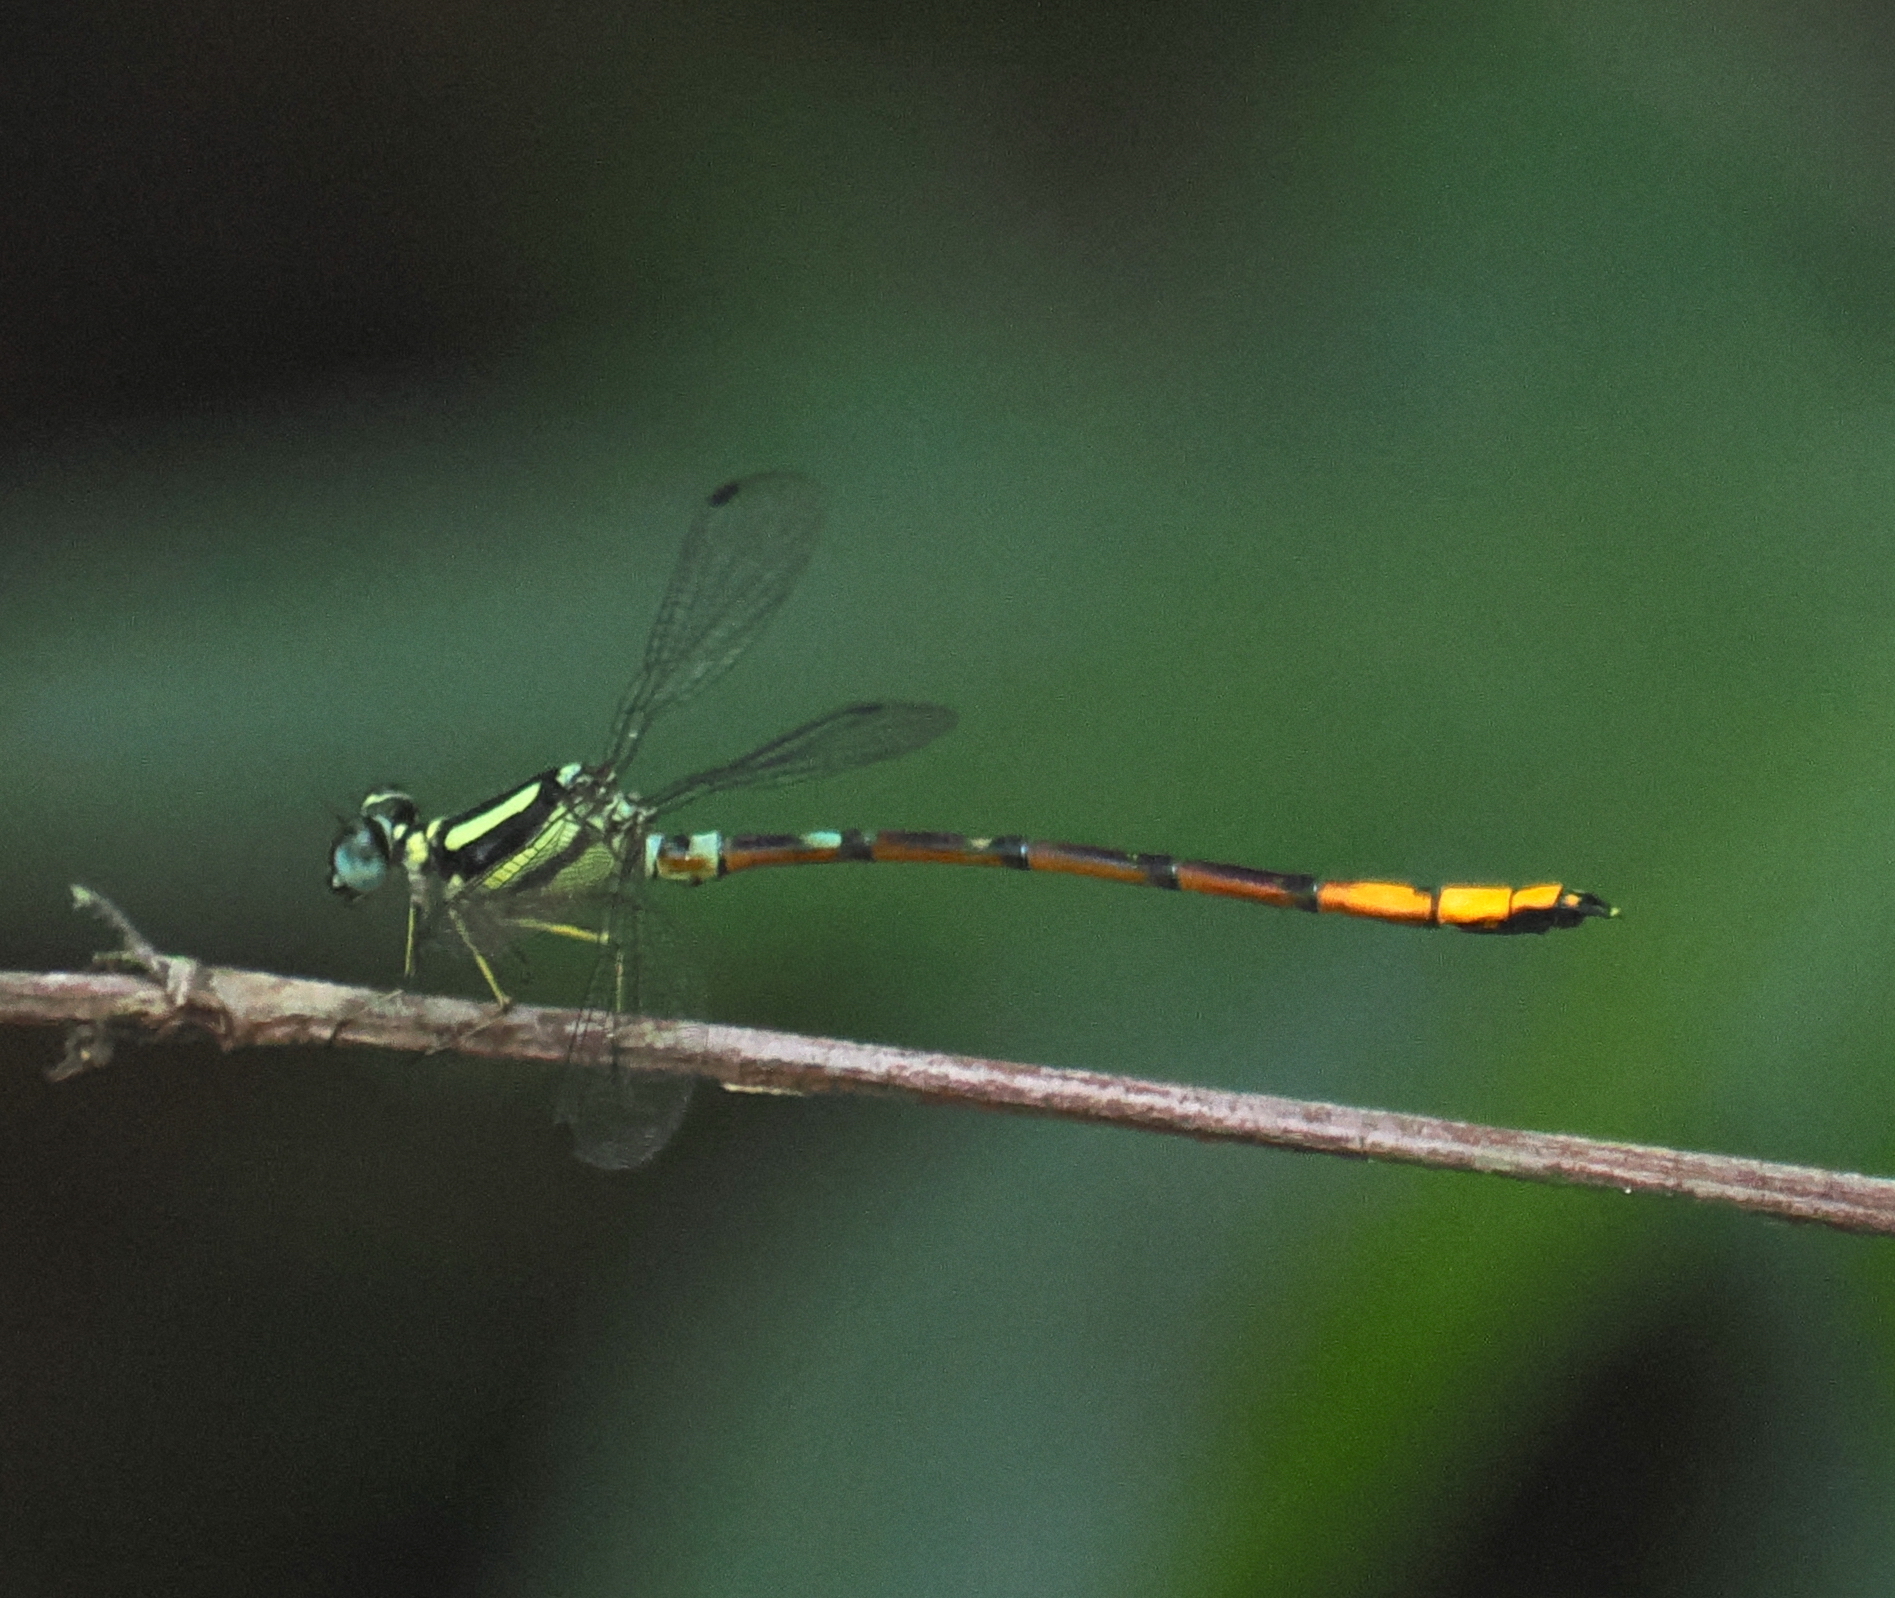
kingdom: Animalia
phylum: Arthropoda
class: Insecta
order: Odonata
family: Philosinidae
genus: Rhinagrion
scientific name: Rhinagrion viridatum
